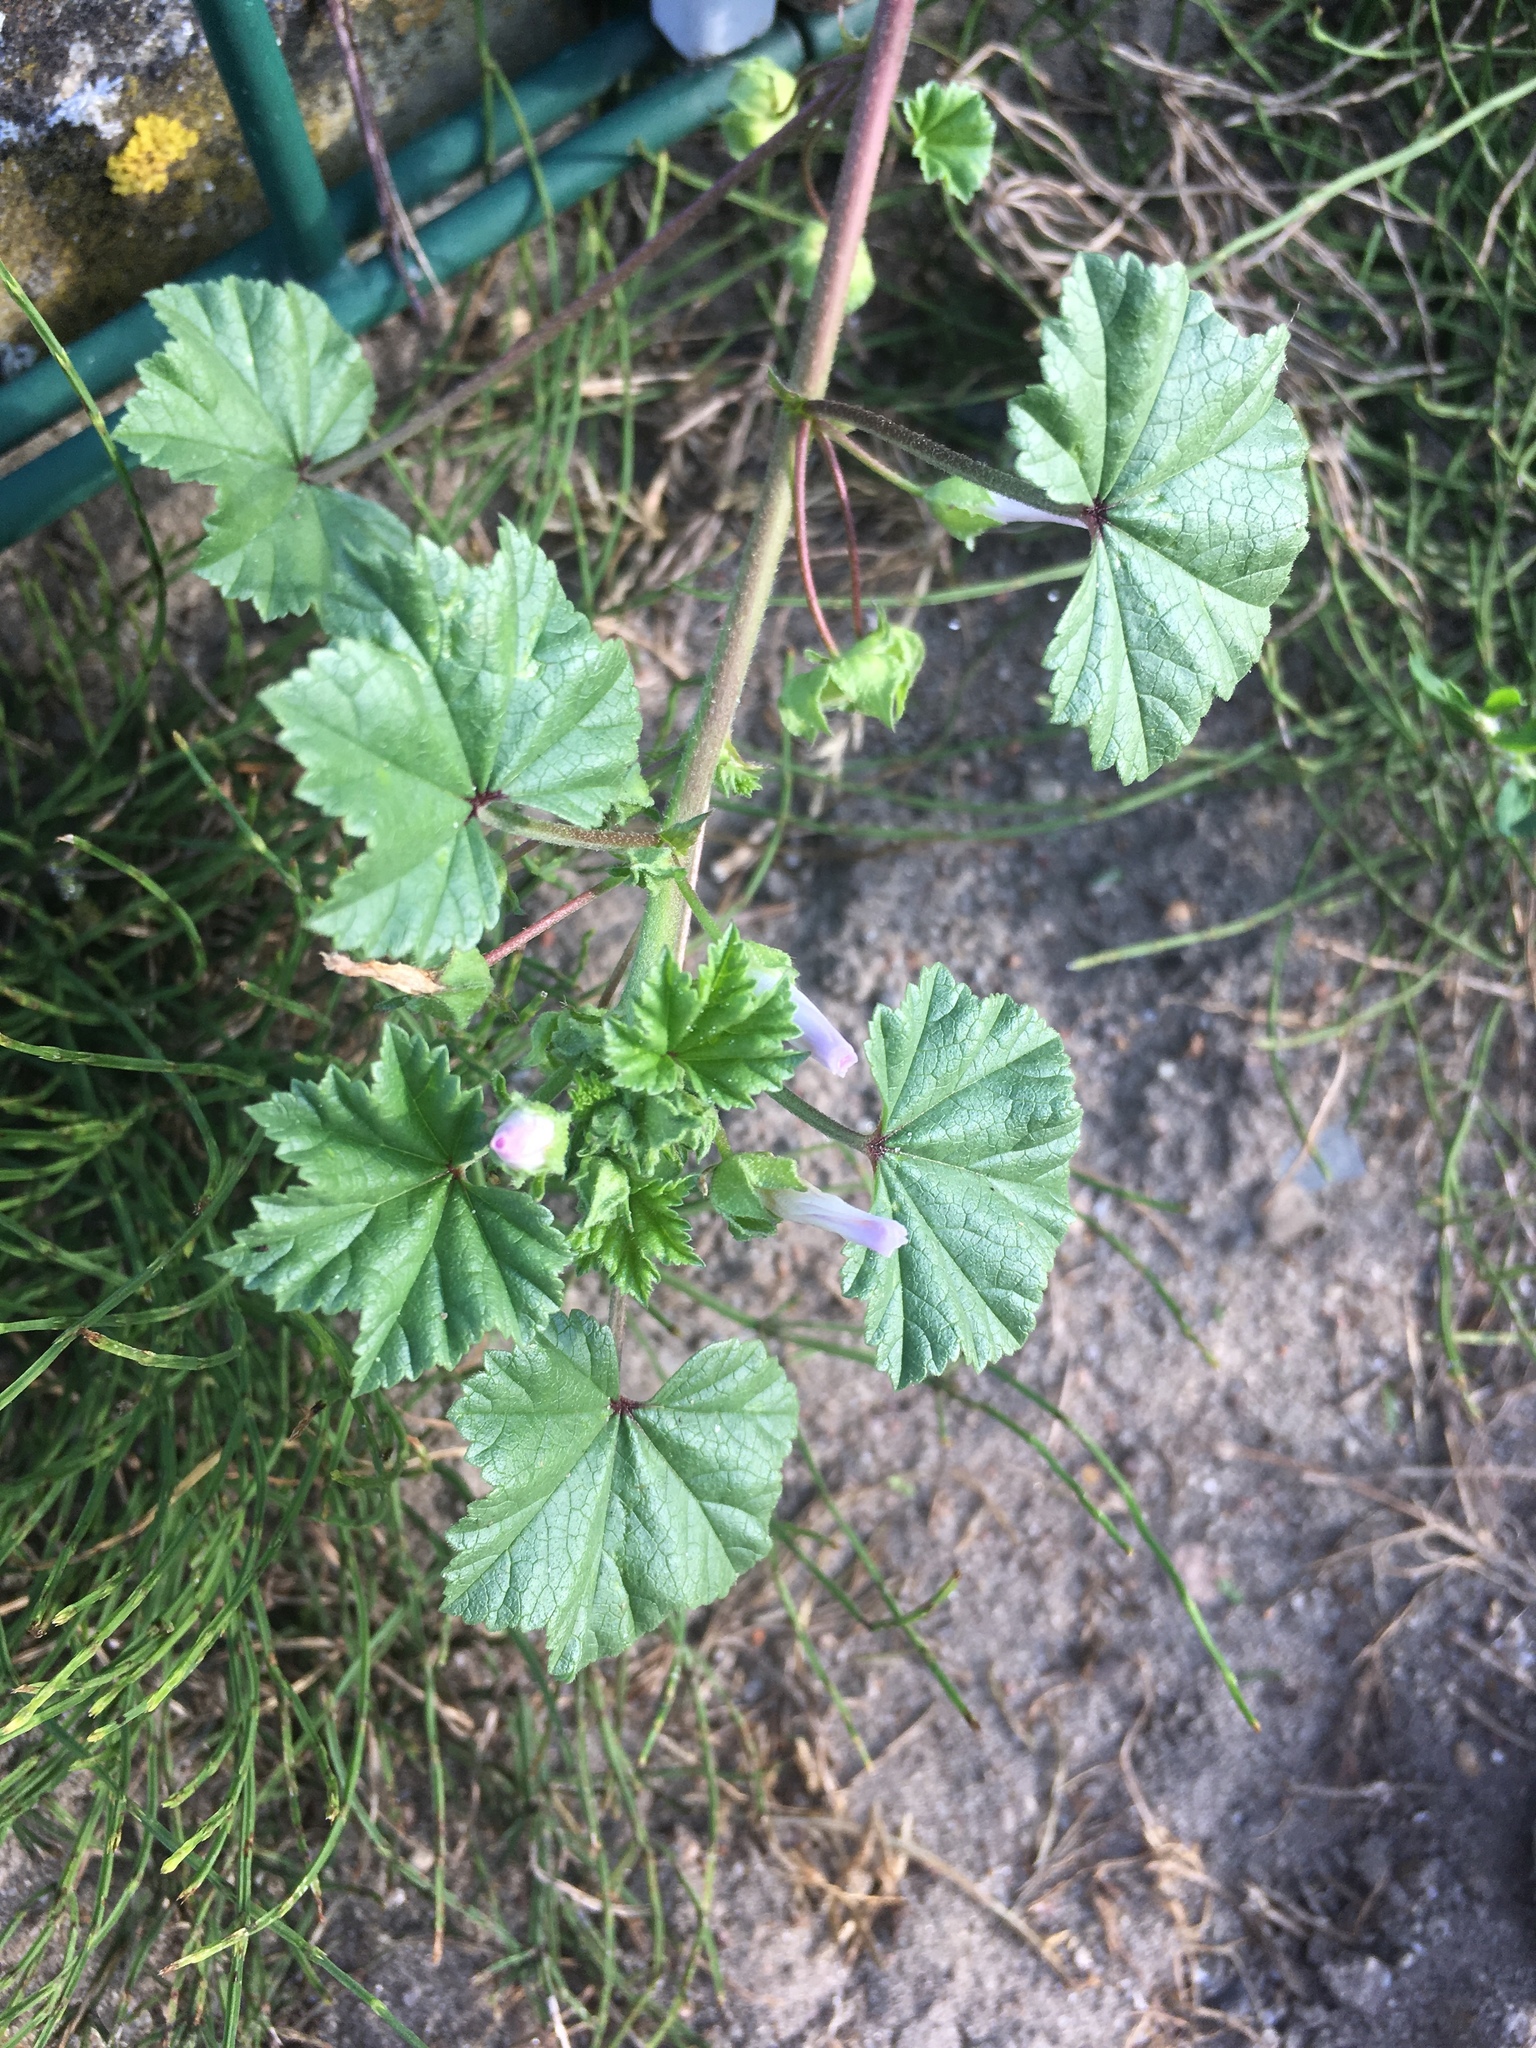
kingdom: Plantae
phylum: Tracheophyta
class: Magnoliopsida
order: Malvales
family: Malvaceae
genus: Malva
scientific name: Malva neglecta
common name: Common mallow
